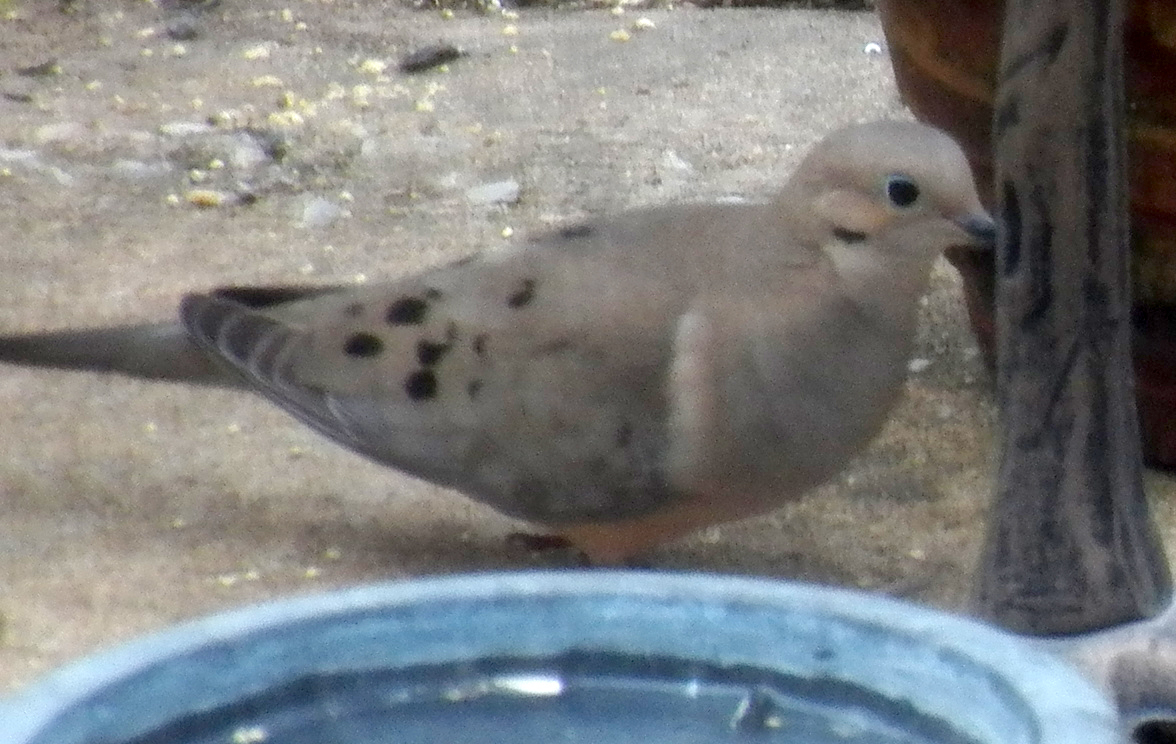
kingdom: Animalia
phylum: Chordata
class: Aves
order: Columbiformes
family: Columbidae
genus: Zenaida
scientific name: Zenaida macroura
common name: Mourning dove
